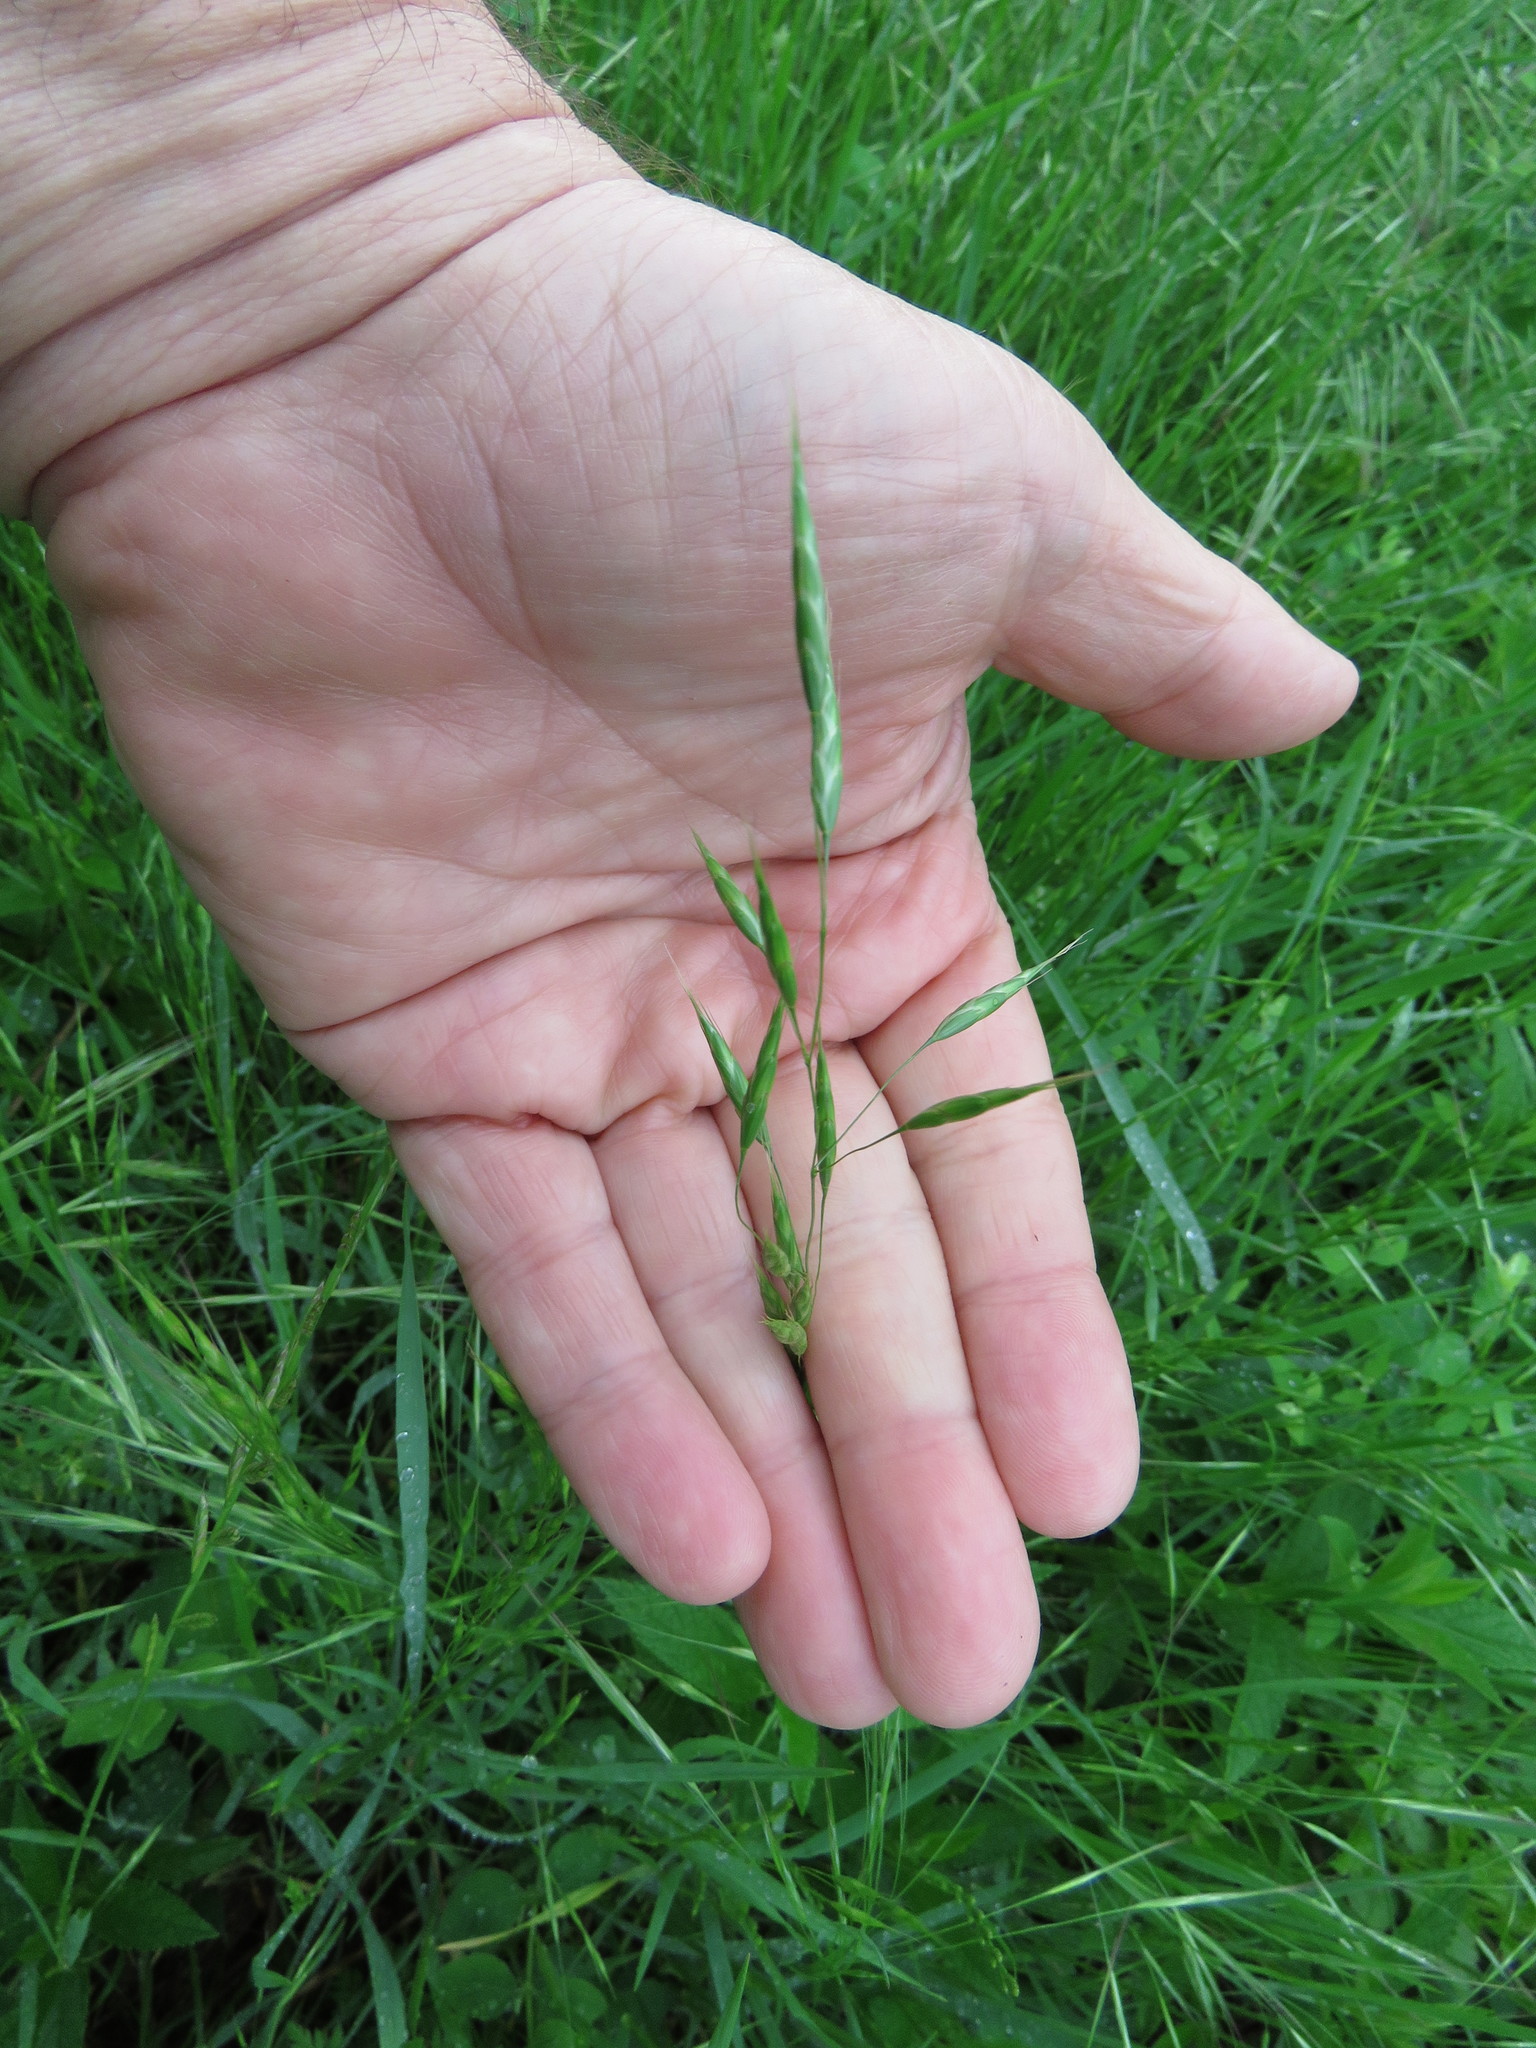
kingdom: Plantae
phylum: Tracheophyta
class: Liliopsida
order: Poales
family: Poaceae
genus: Bromus
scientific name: Bromus japonicus
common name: Japanese brome
